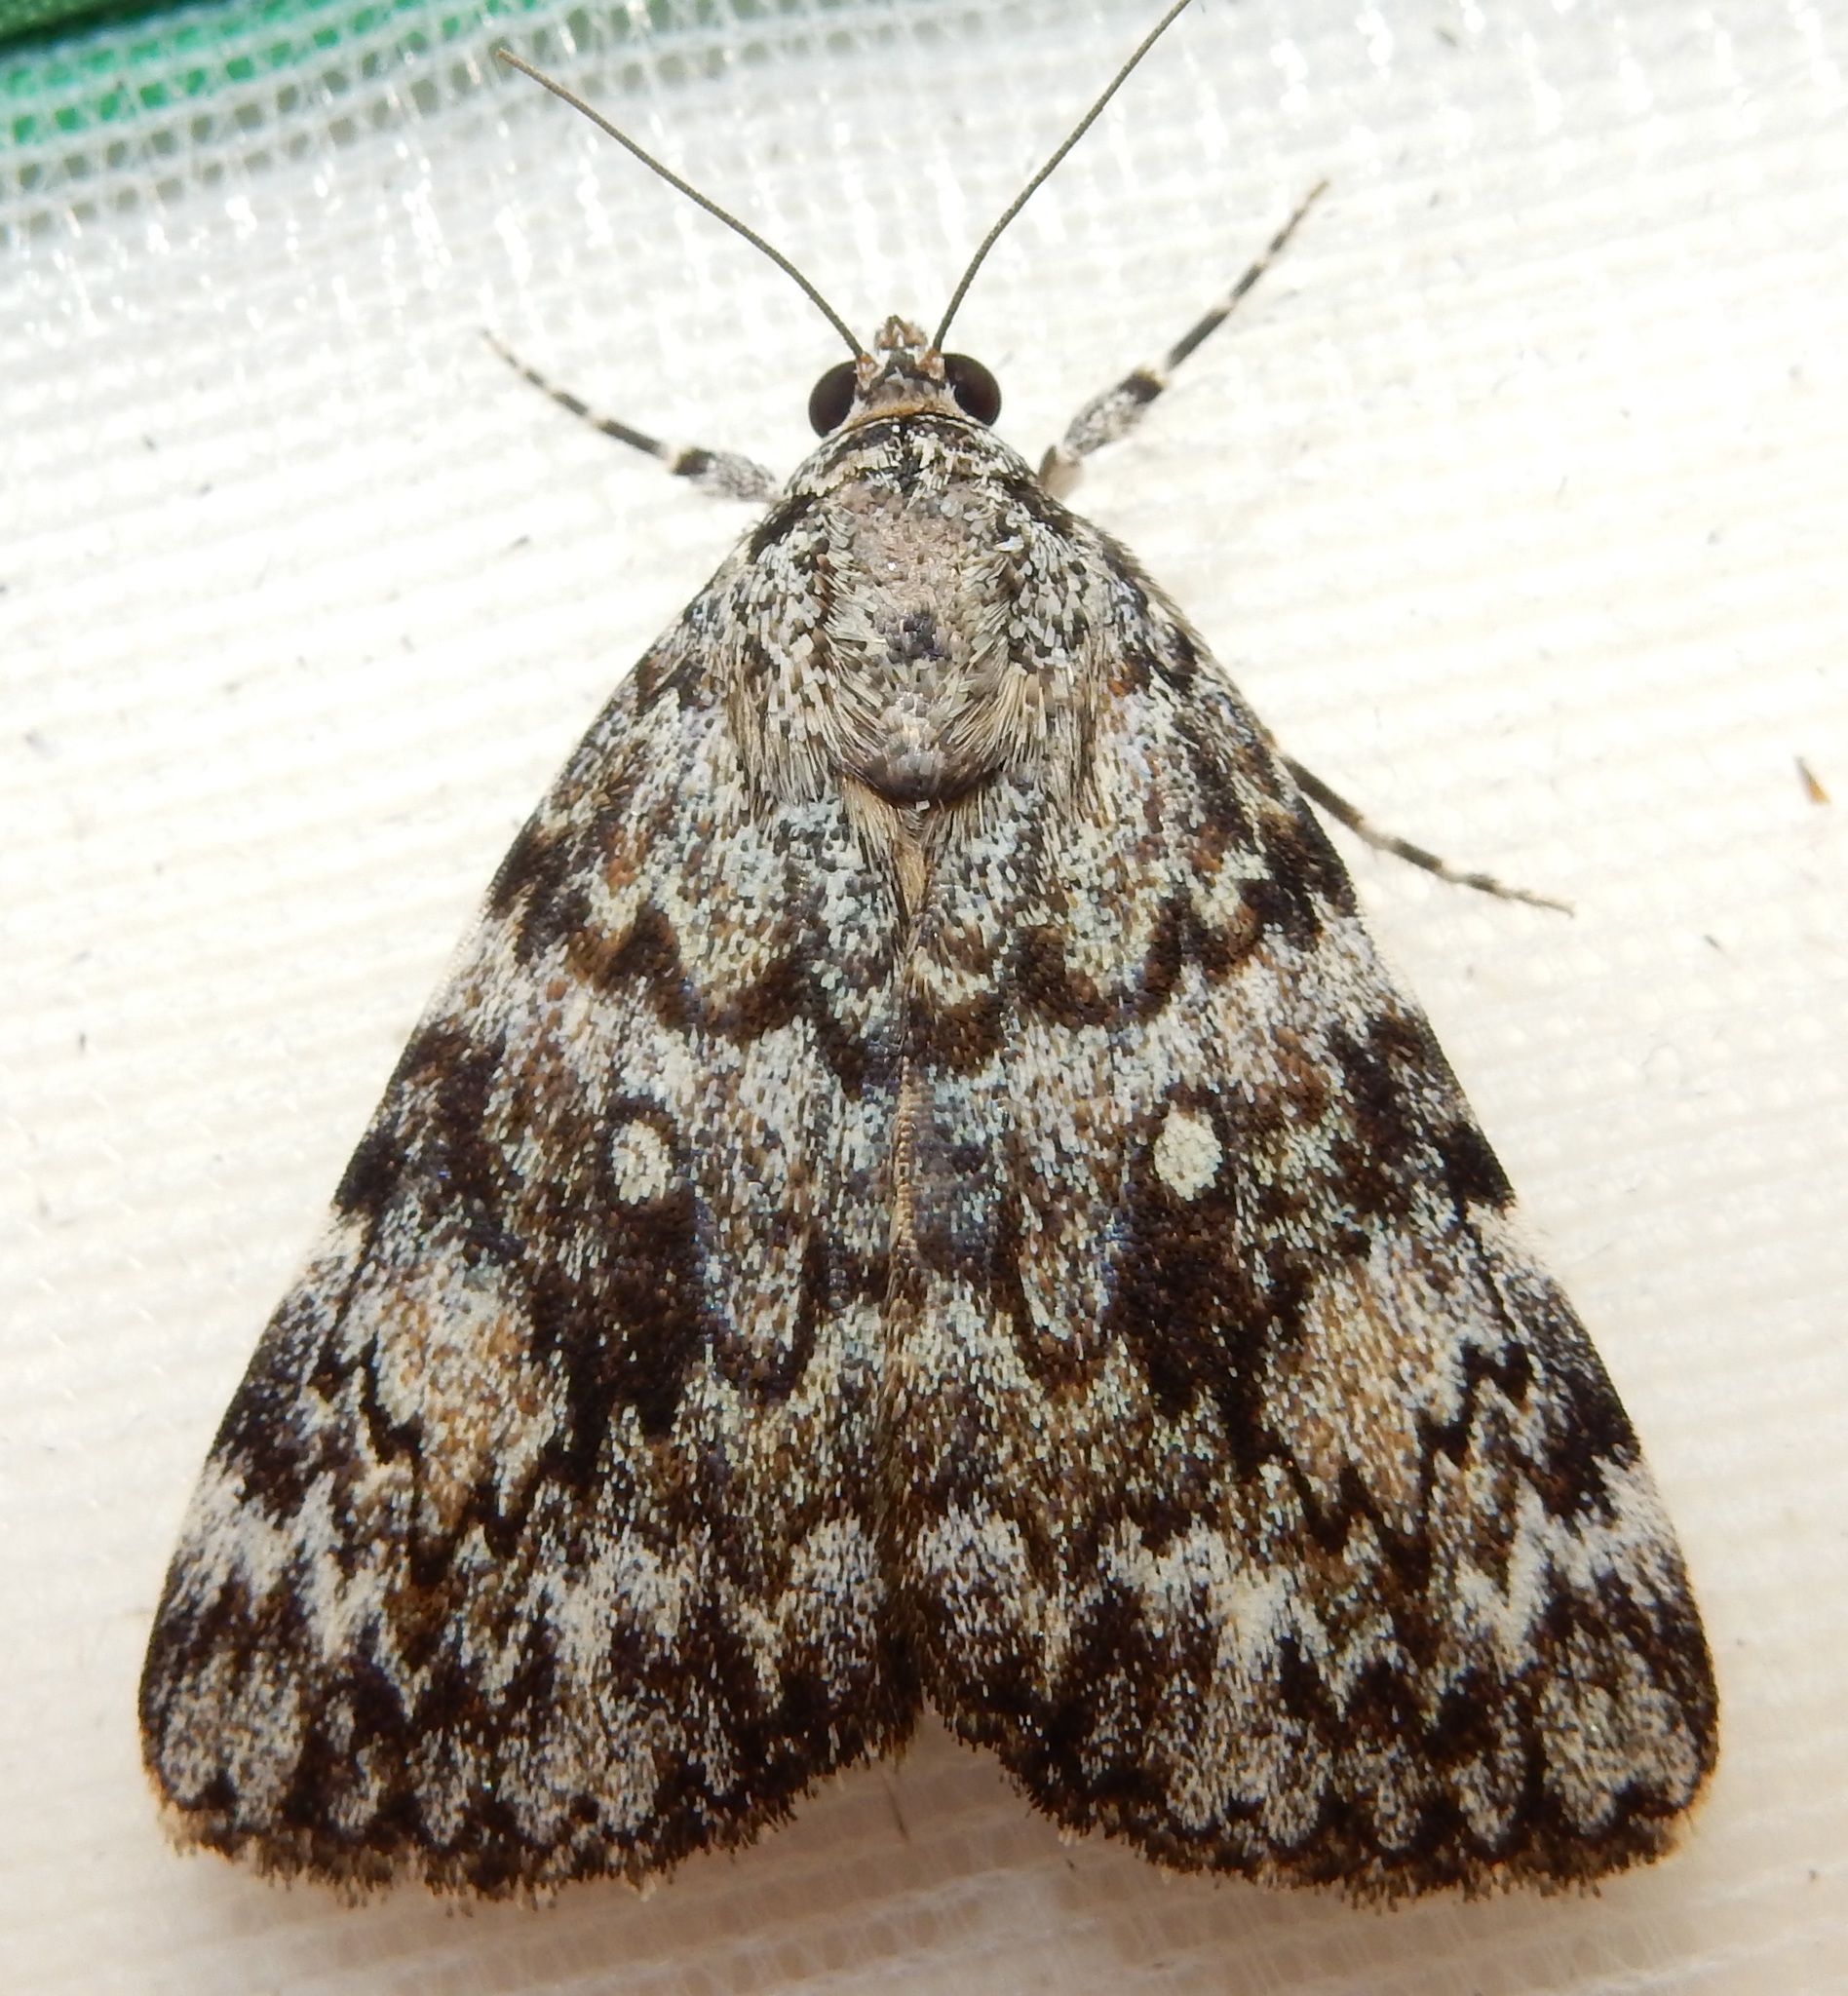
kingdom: Animalia
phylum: Arthropoda
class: Insecta
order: Lepidoptera
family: Erebidae
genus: Catocala
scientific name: Catocala lineella
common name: Little lined underwing
